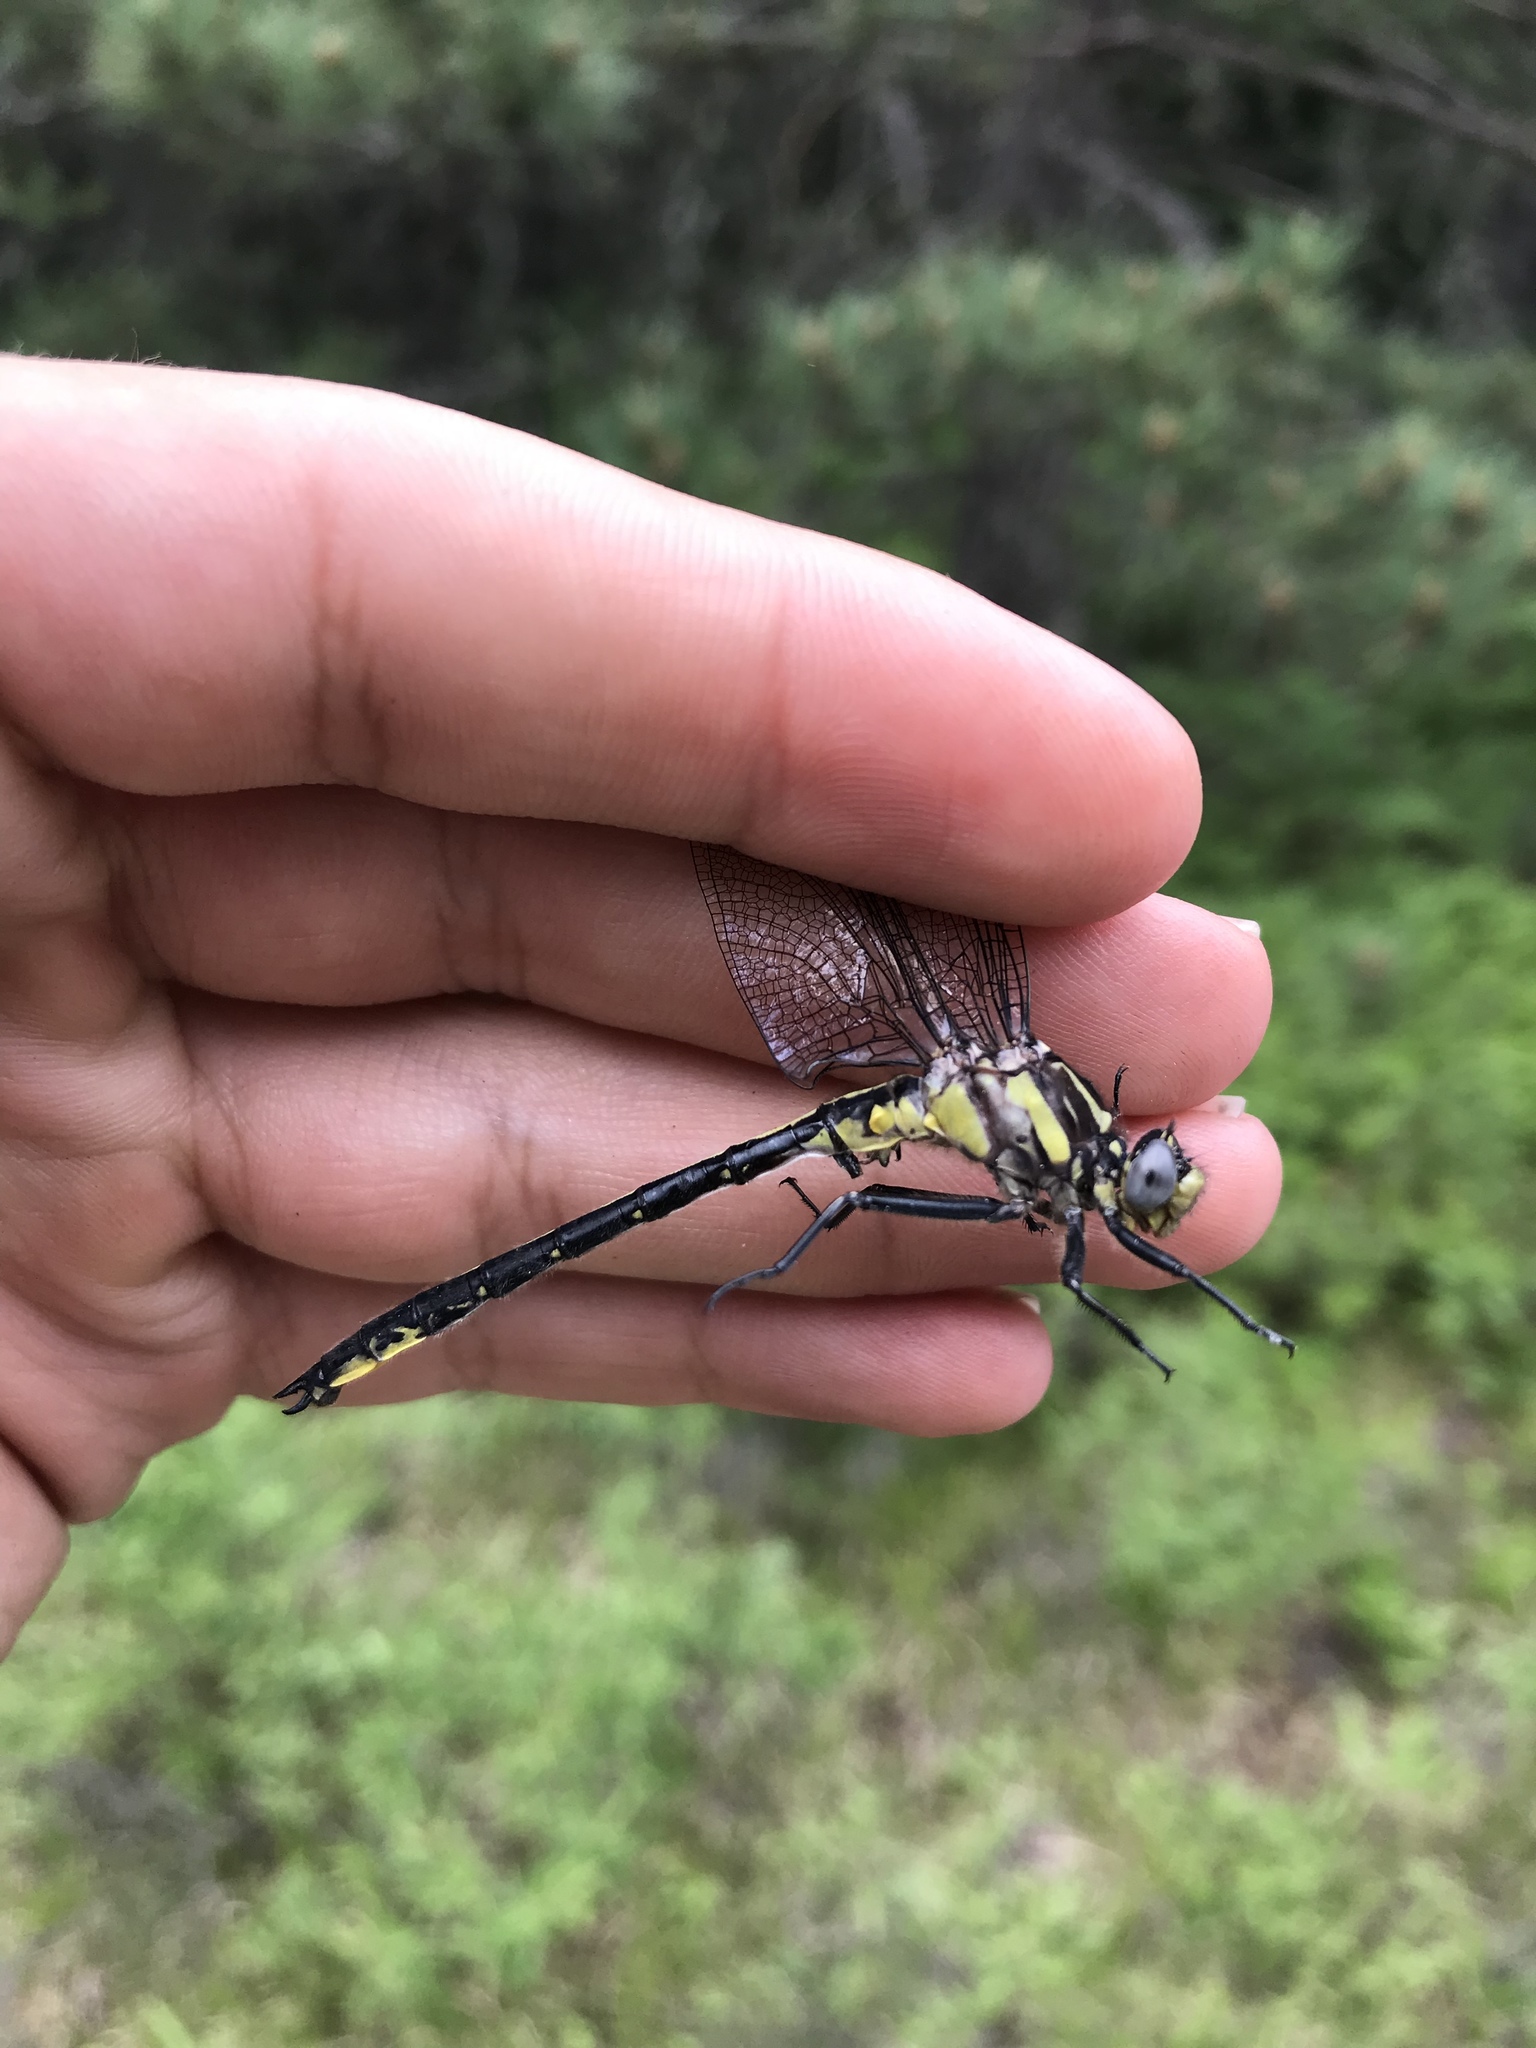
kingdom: Animalia
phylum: Arthropoda
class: Insecta
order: Odonata
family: Gomphidae
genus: Phanogomphus
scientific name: Phanogomphus descriptus
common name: Harpoon clubtail
